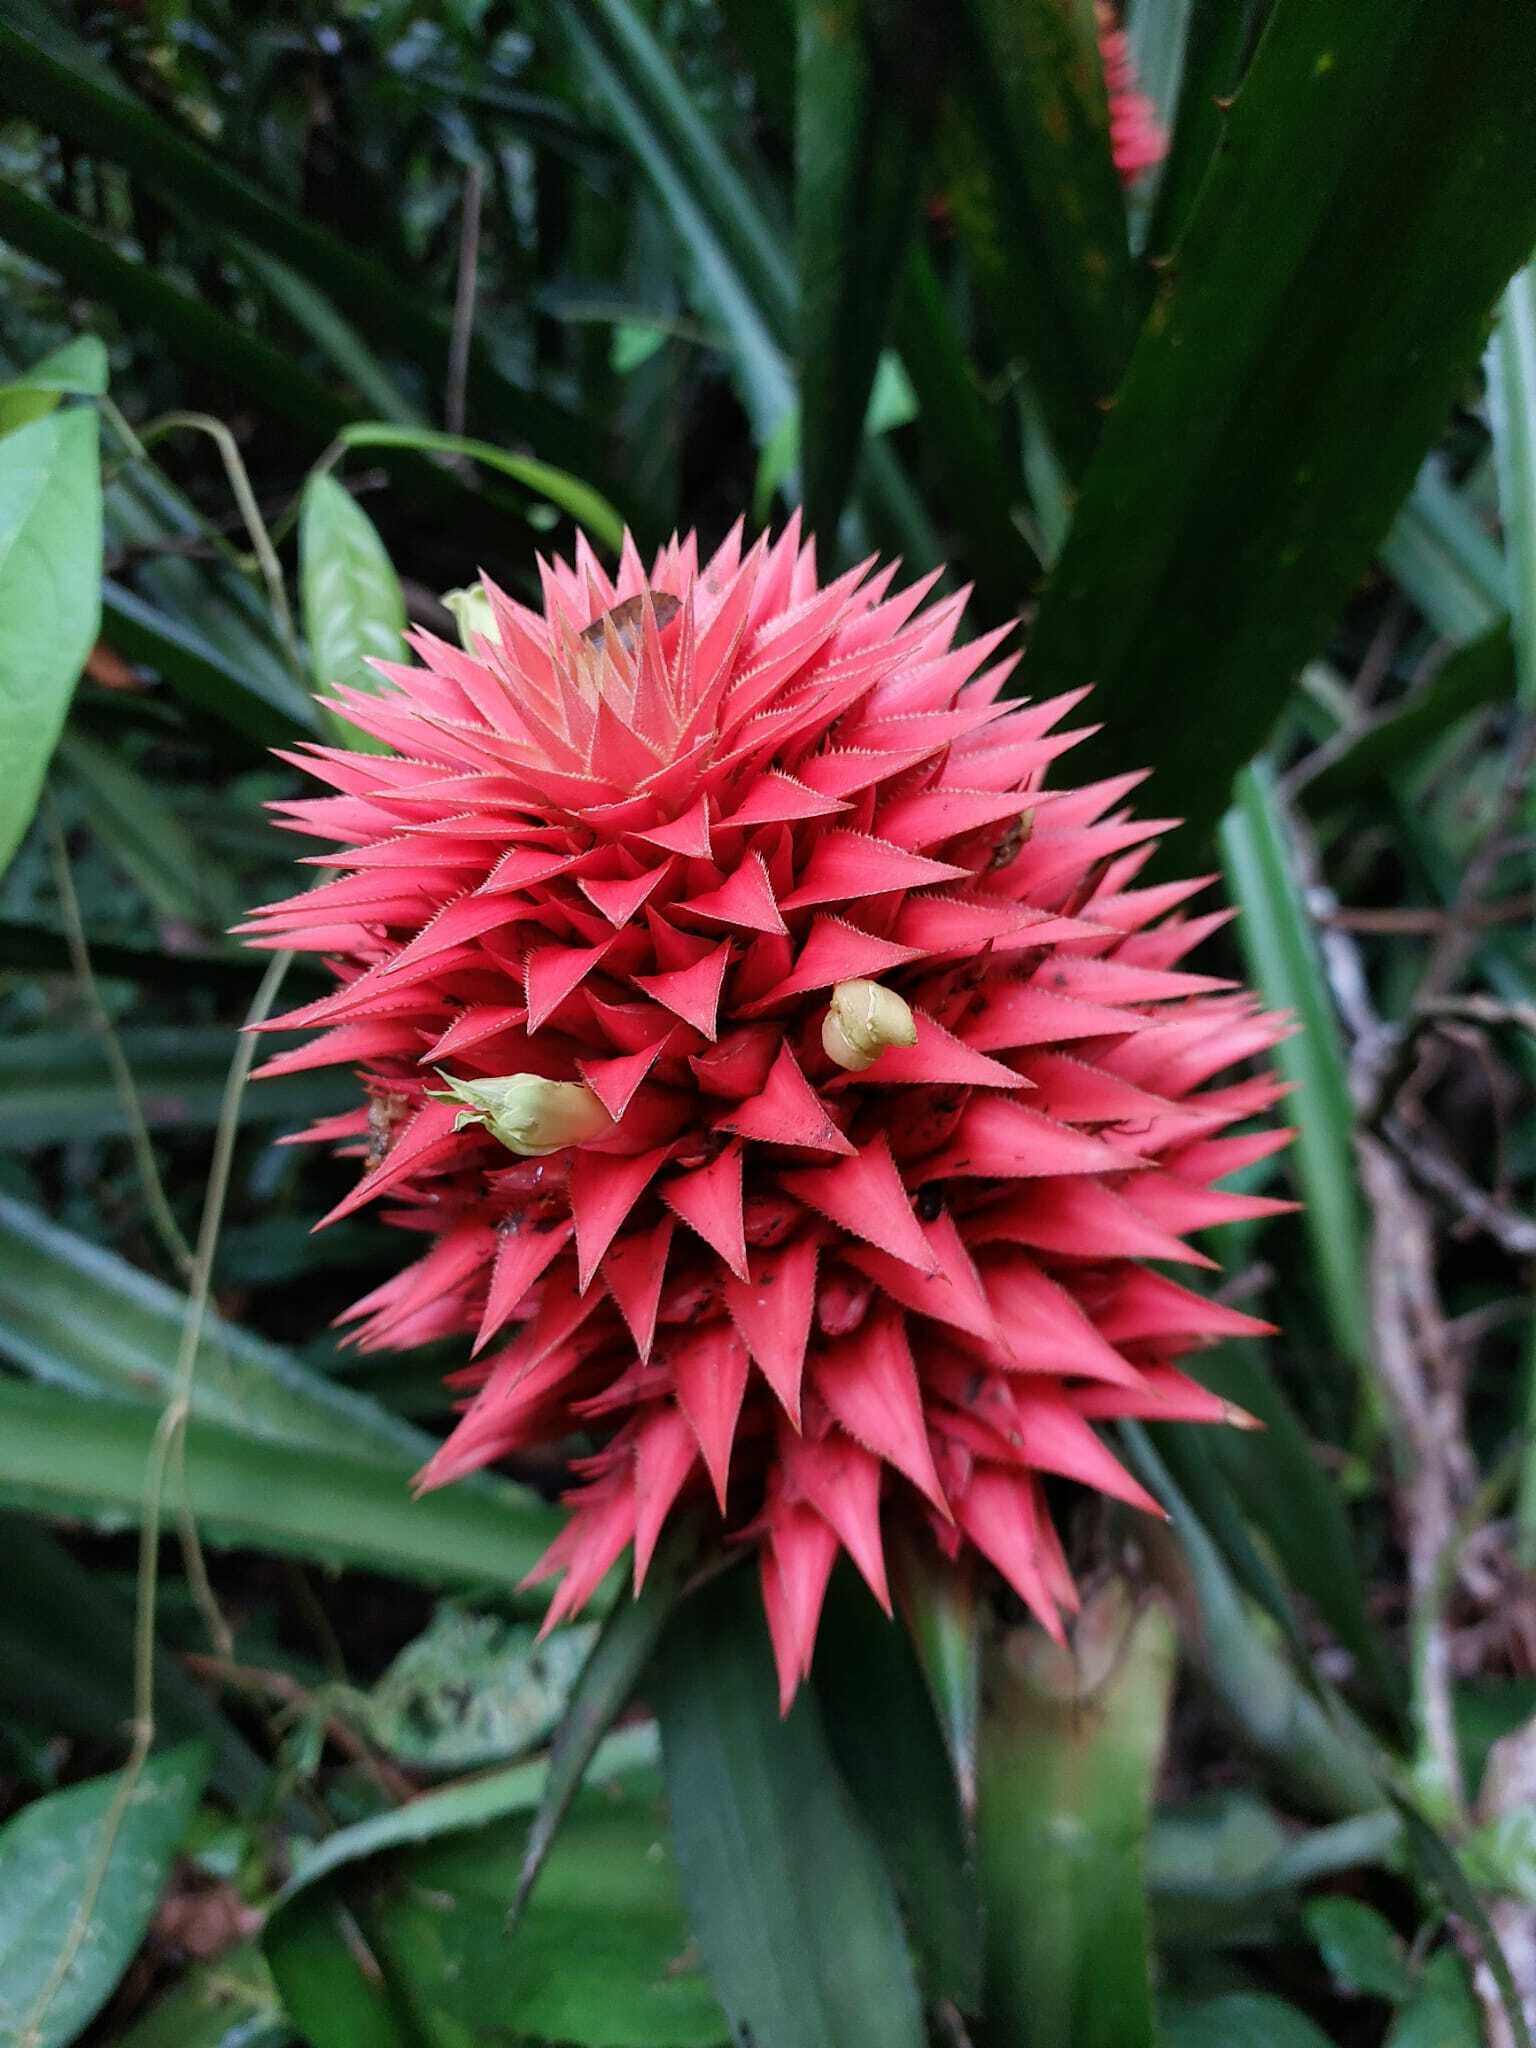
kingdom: Plantae
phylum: Tracheophyta
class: Liliopsida
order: Poales
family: Bromeliaceae
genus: Aechmea
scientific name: Aechmea magdalenae
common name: Arghan
